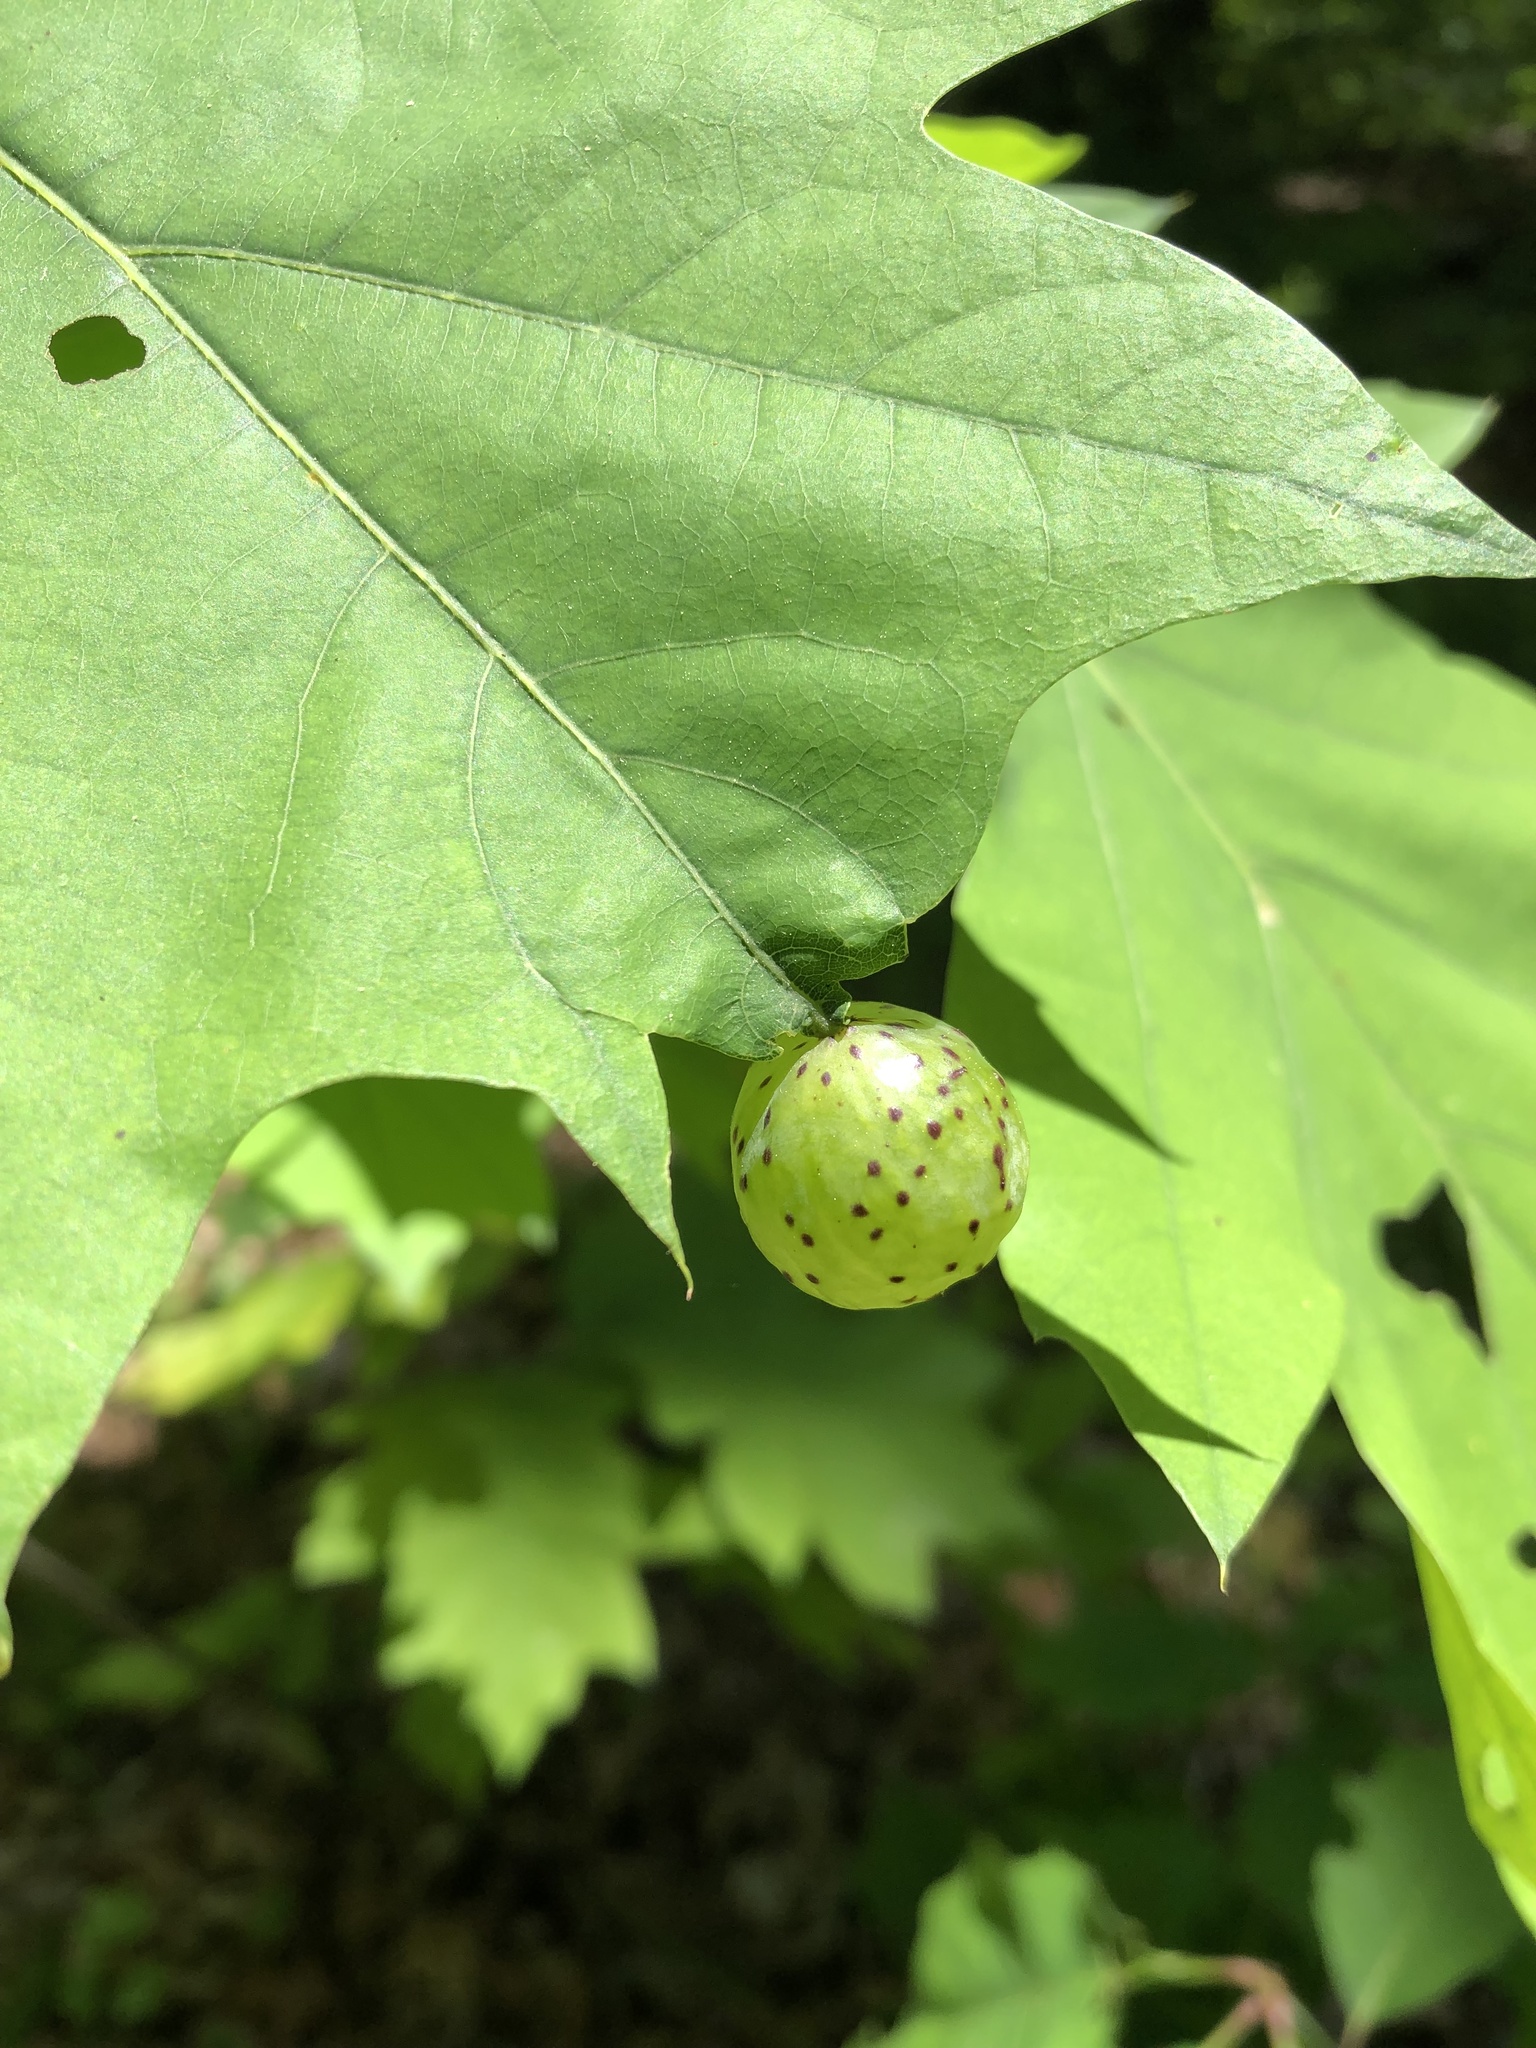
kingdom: Animalia
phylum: Arthropoda
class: Insecta
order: Hymenoptera
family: Cynipidae
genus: Amphibolips
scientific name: Amphibolips
